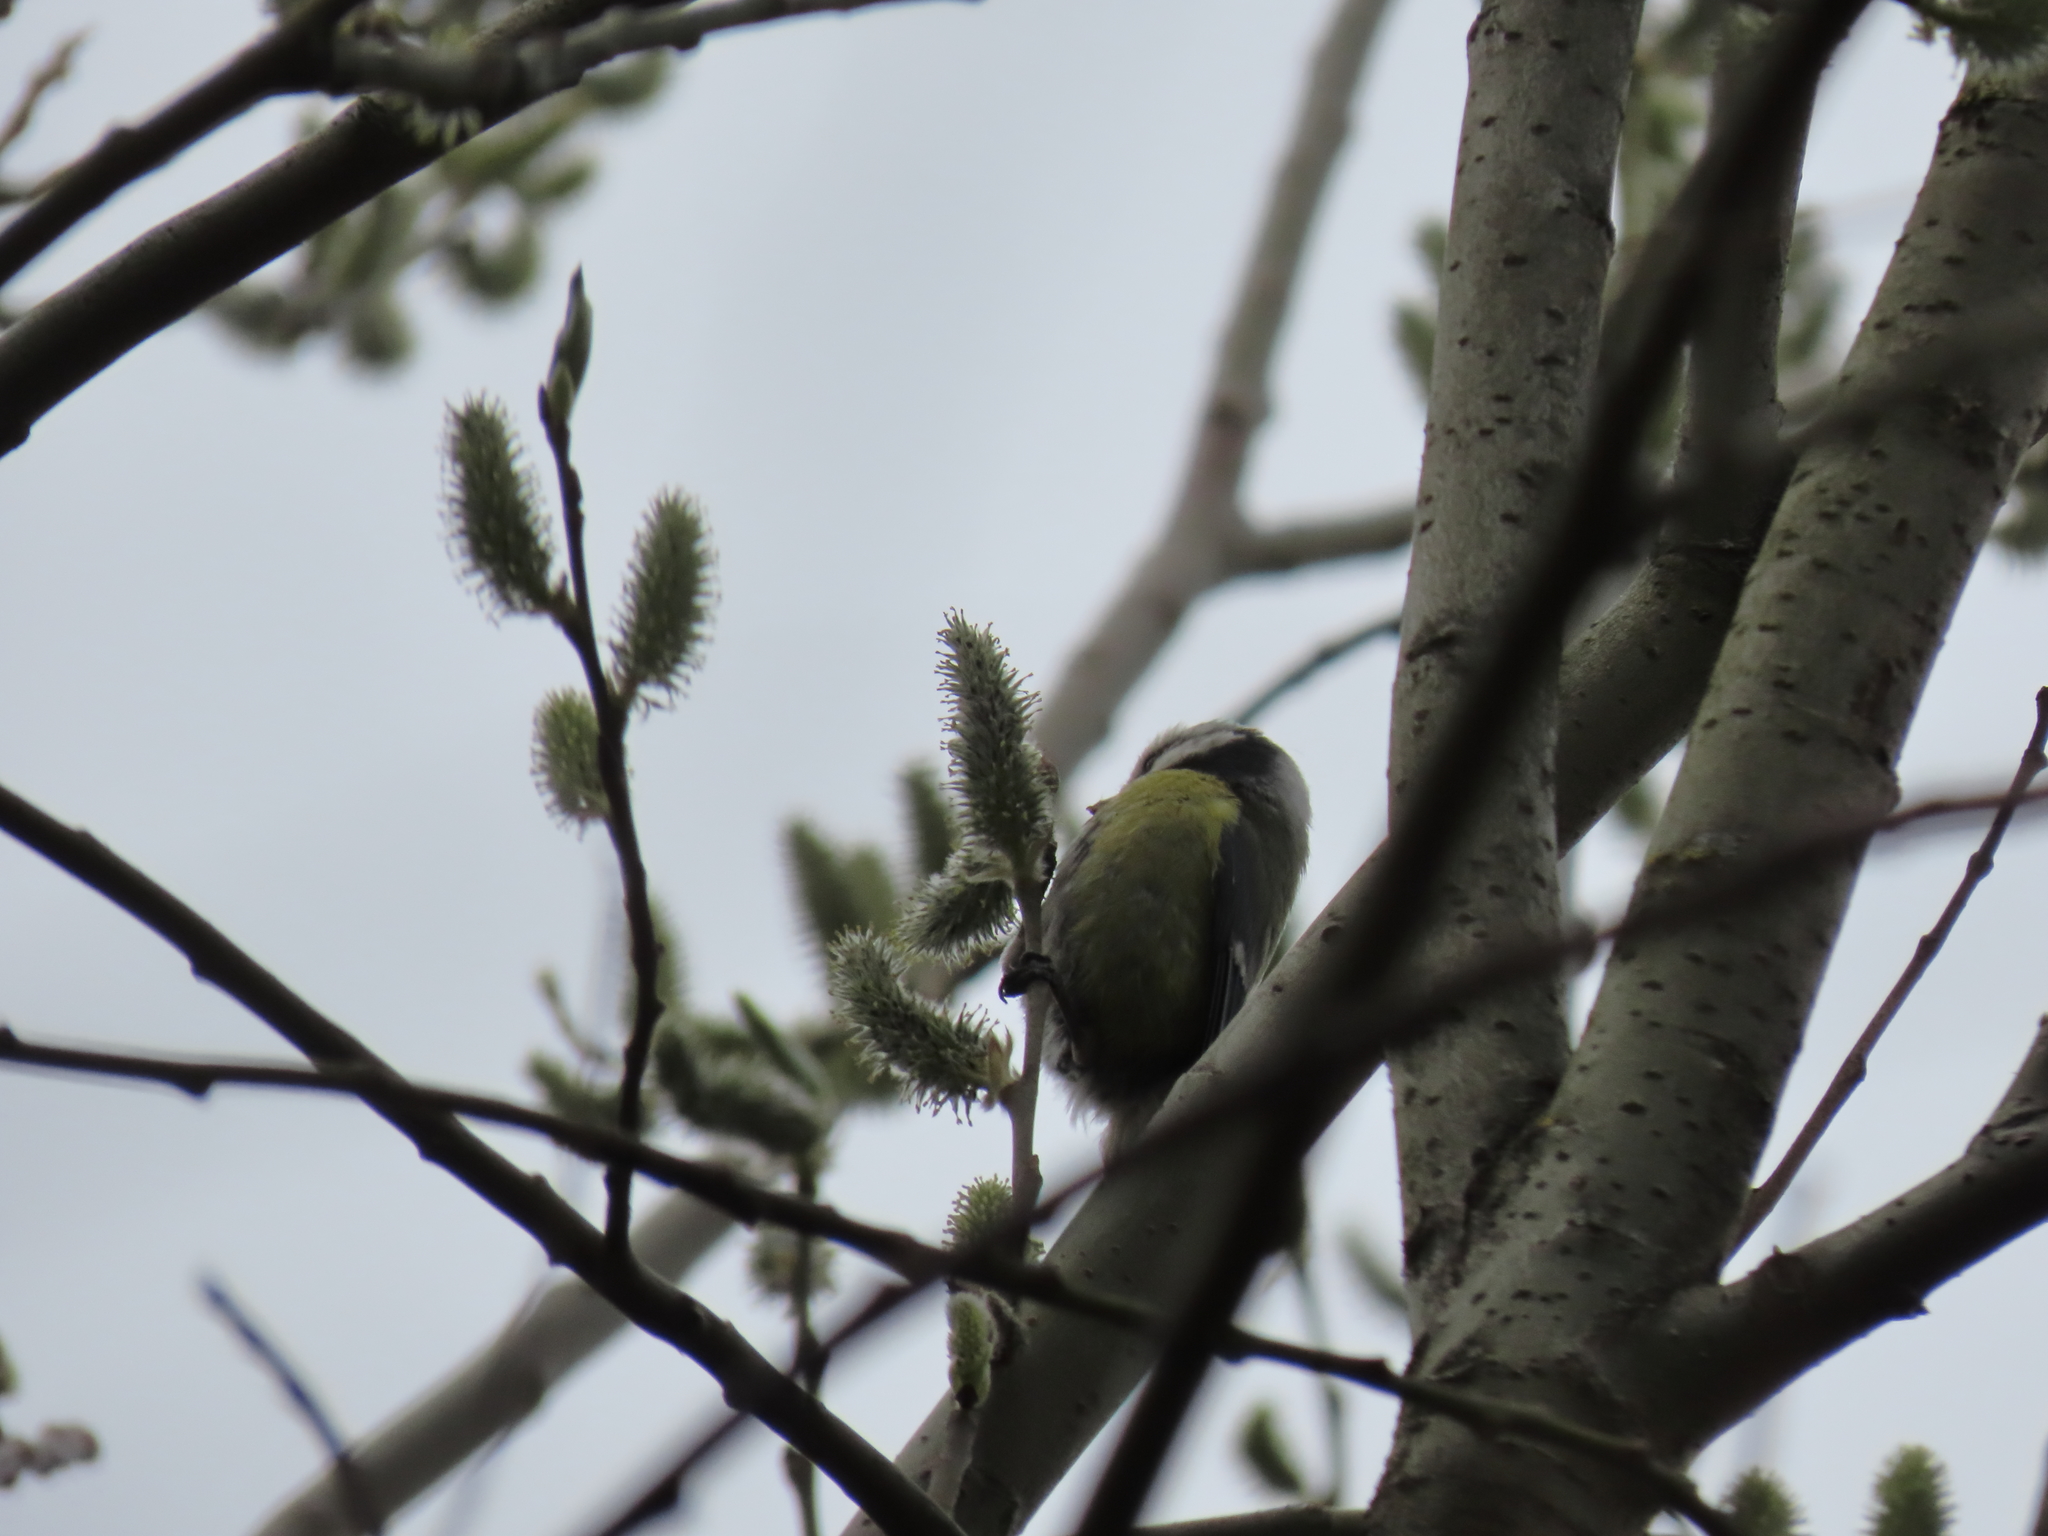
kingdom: Animalia
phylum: Chordata
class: Aves
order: Passeriformes
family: Paridae
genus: Cyanistes
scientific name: Cyanistes caeruleus
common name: Eurasian blue tit
